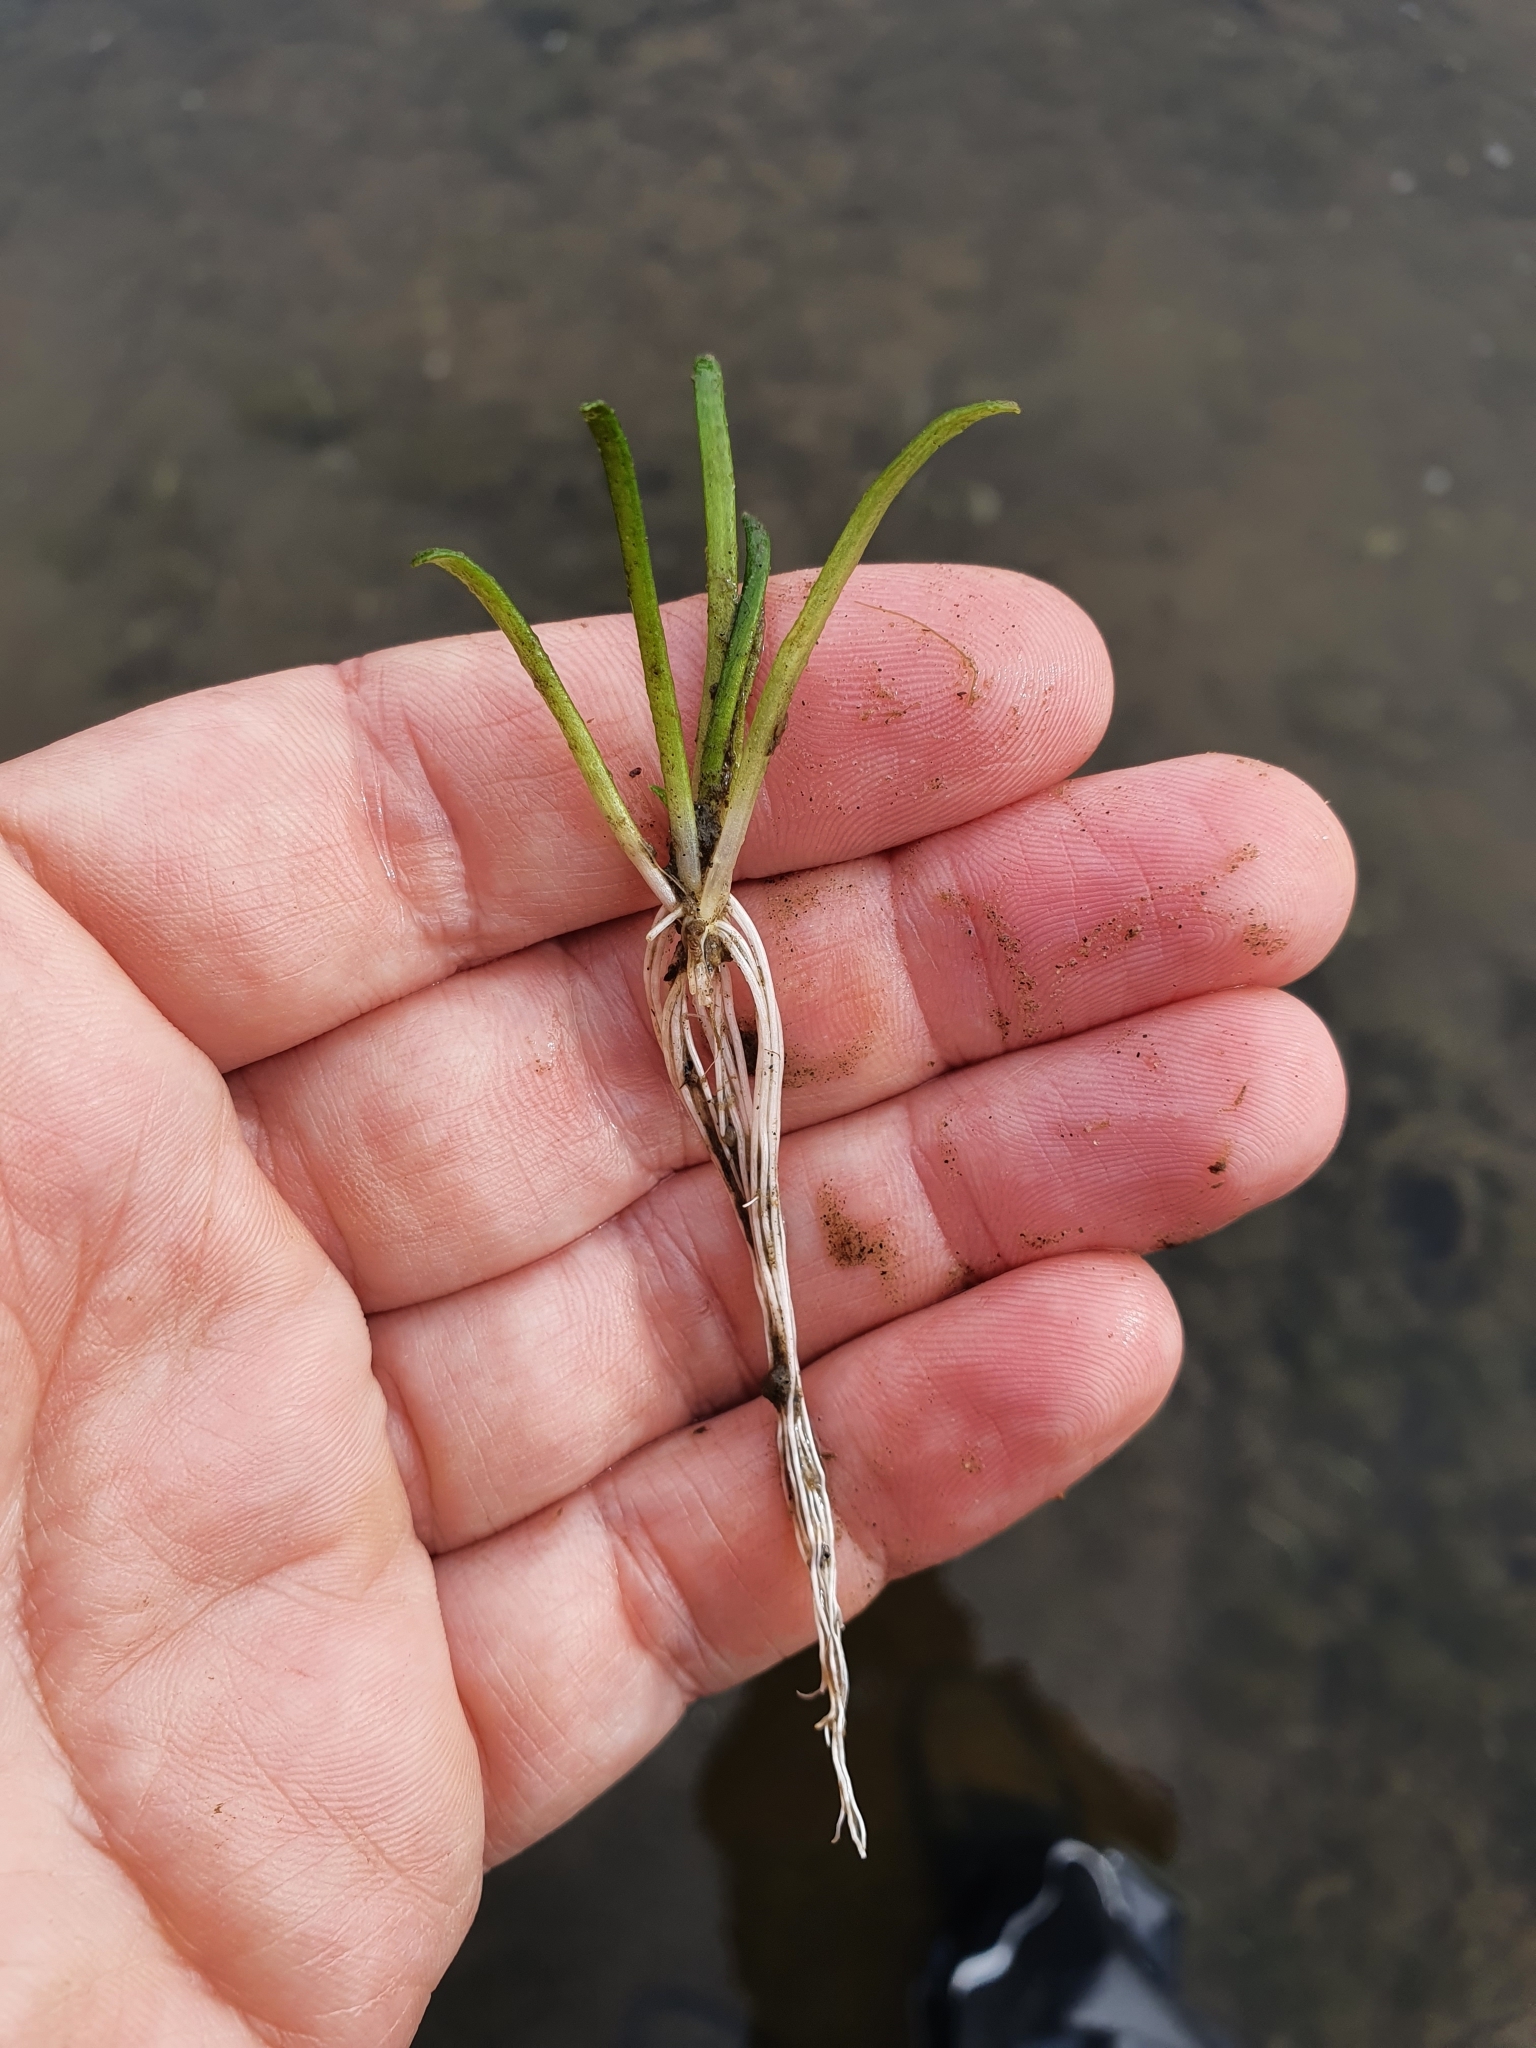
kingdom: Plantae
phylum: Tracheophyta
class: Magnoliopsida
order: Asterales
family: Campanulaceae
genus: Lobelia
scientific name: Lobelia dortmanna
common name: Water lobelia
